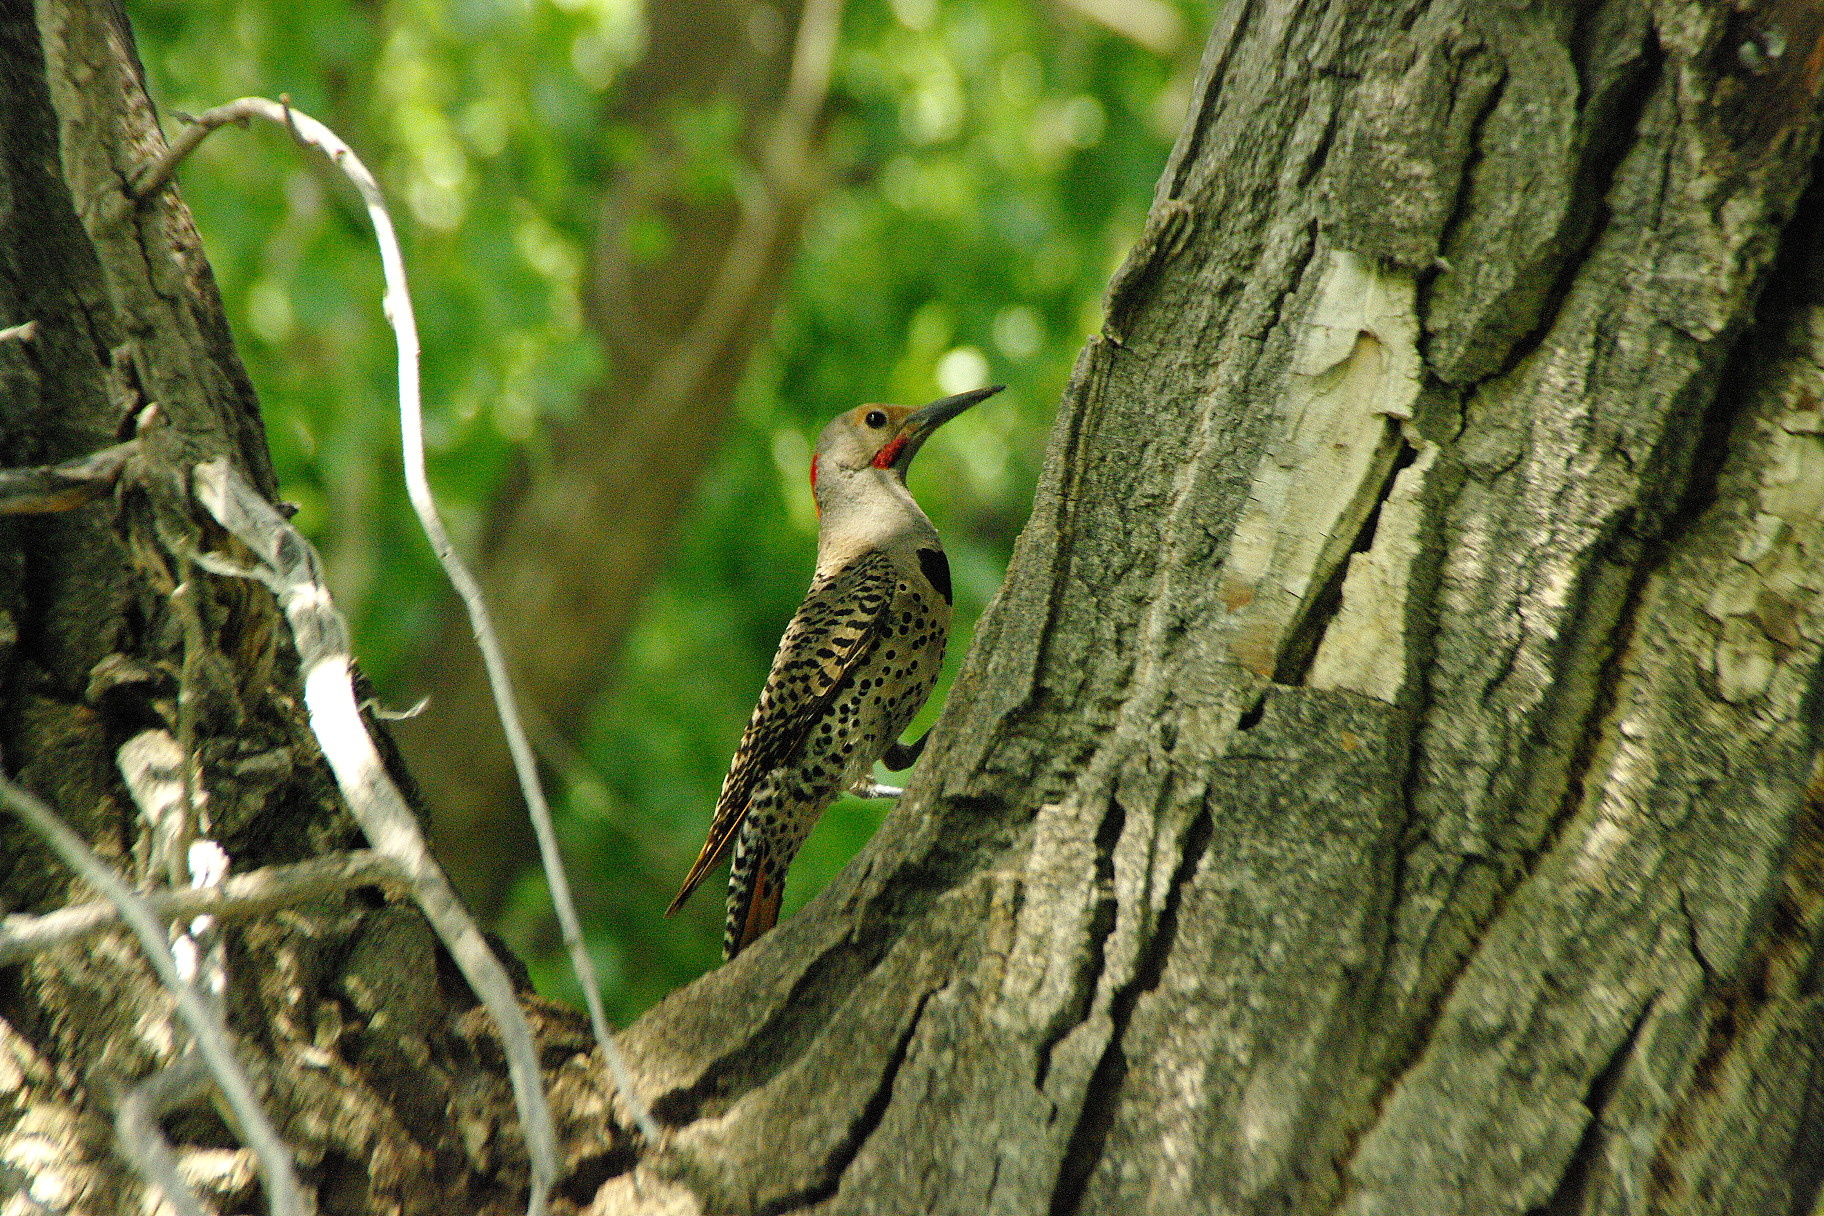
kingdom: Animalia
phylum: Chordata
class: Aves
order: Piciformes
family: Picidae
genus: Colaptes
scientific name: Colaptes auratus
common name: Northern flicker
